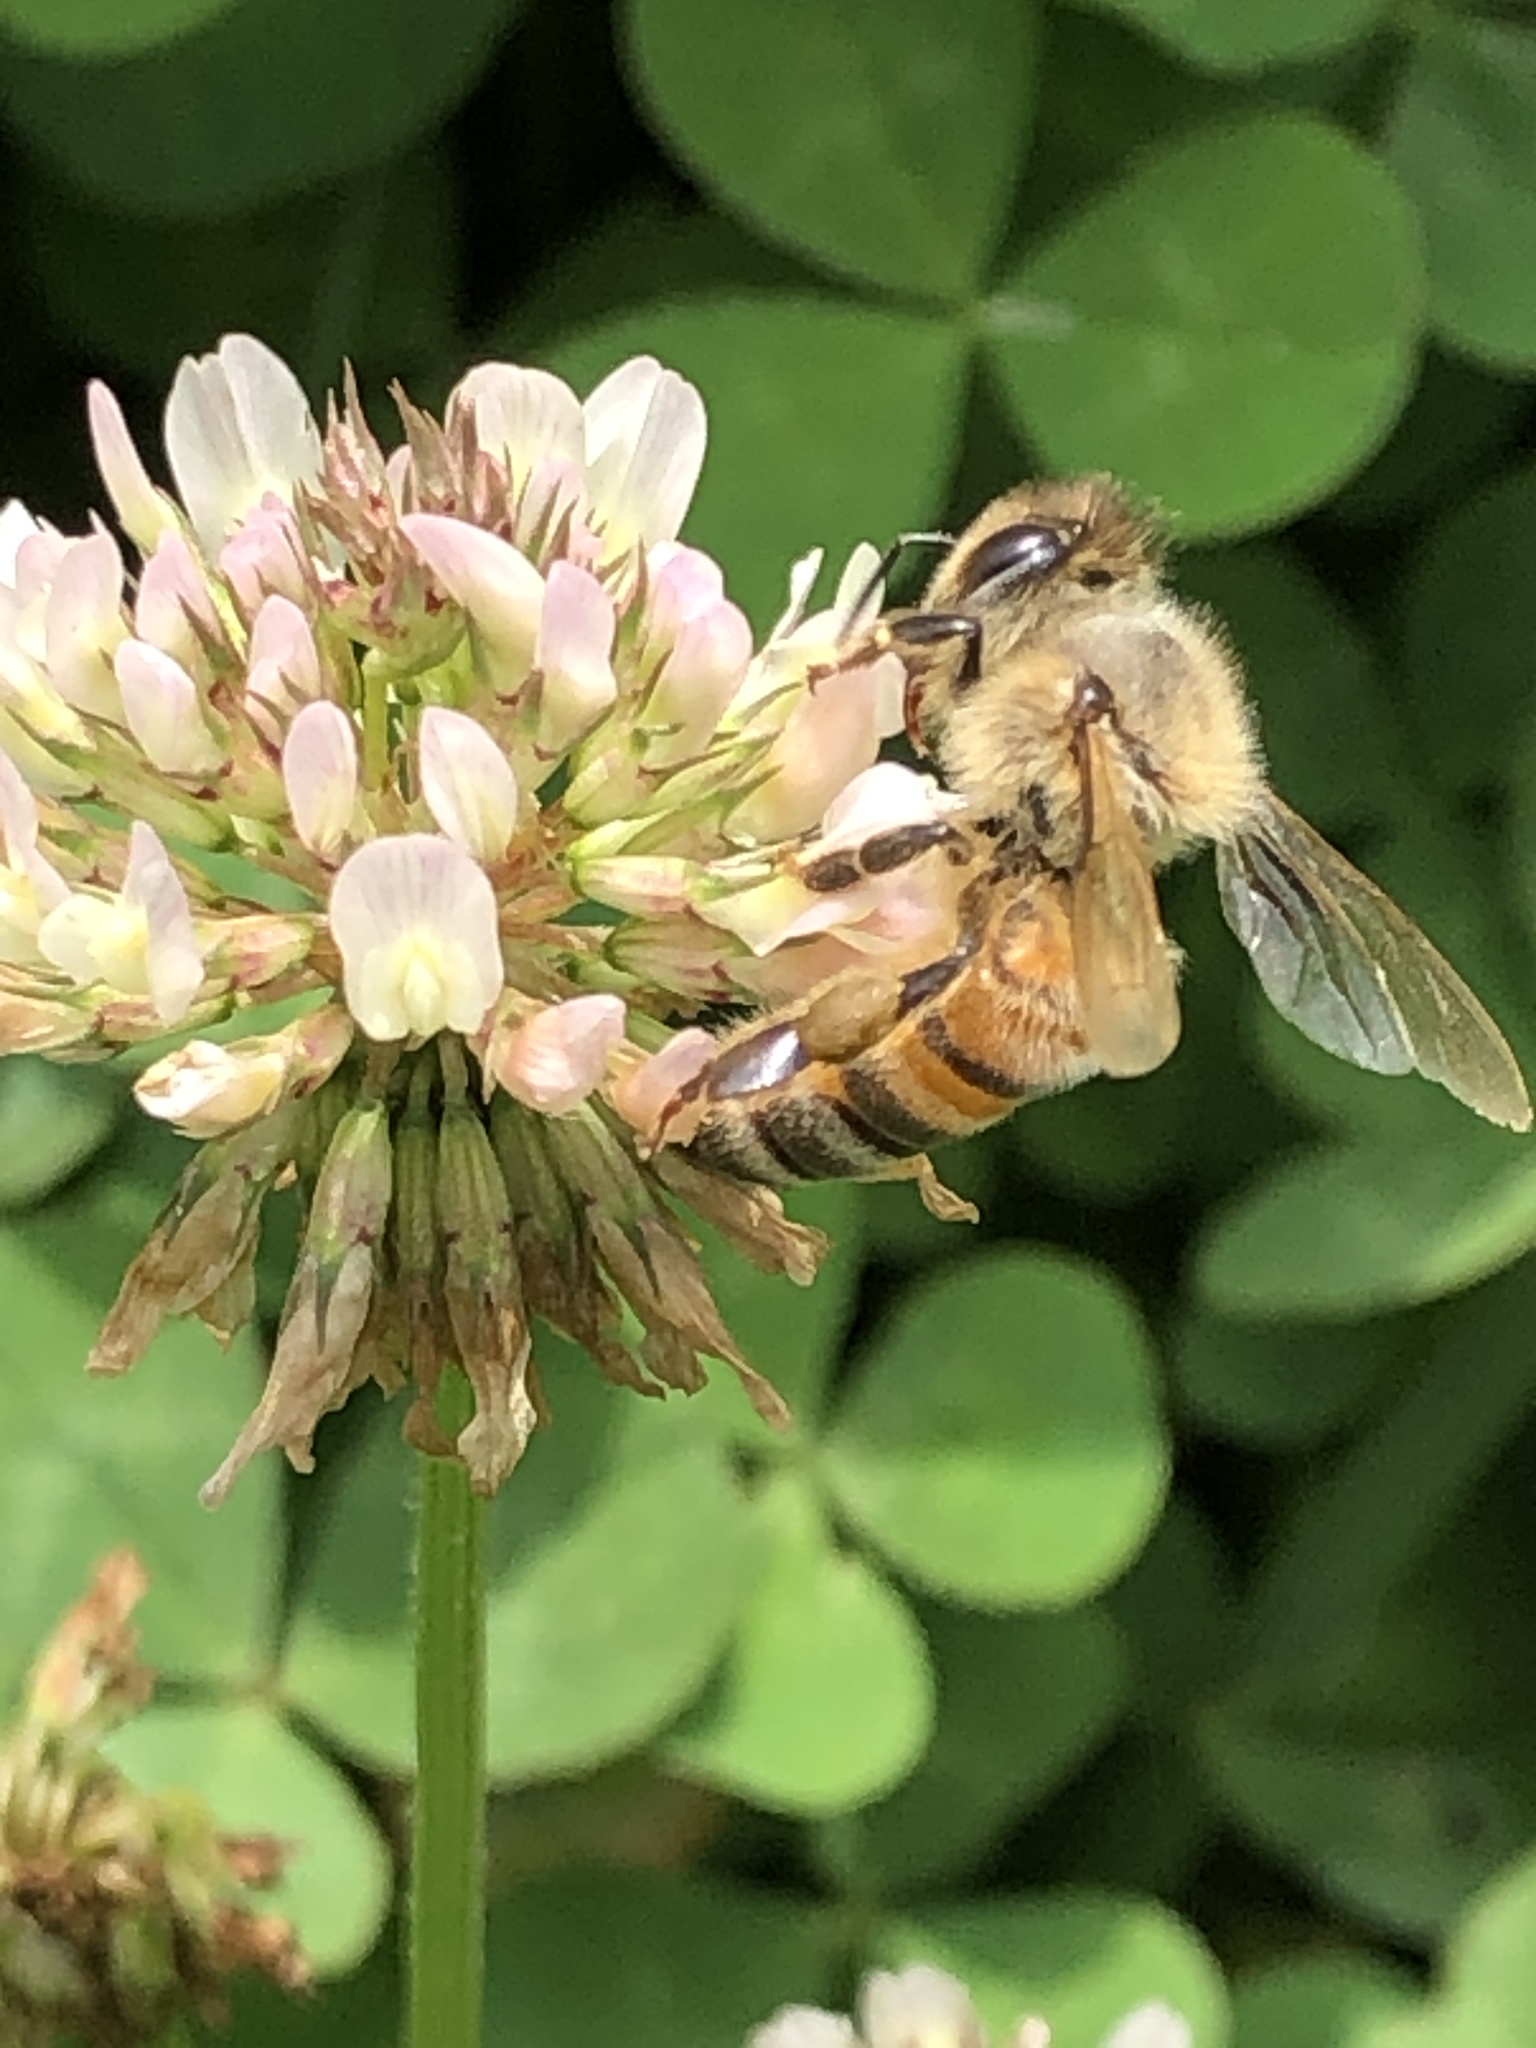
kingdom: Animalia
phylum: Arthropoda
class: Insecta
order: Hymenoptera
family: Apidae
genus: Apis
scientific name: Apis mellifera
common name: Honey bee
